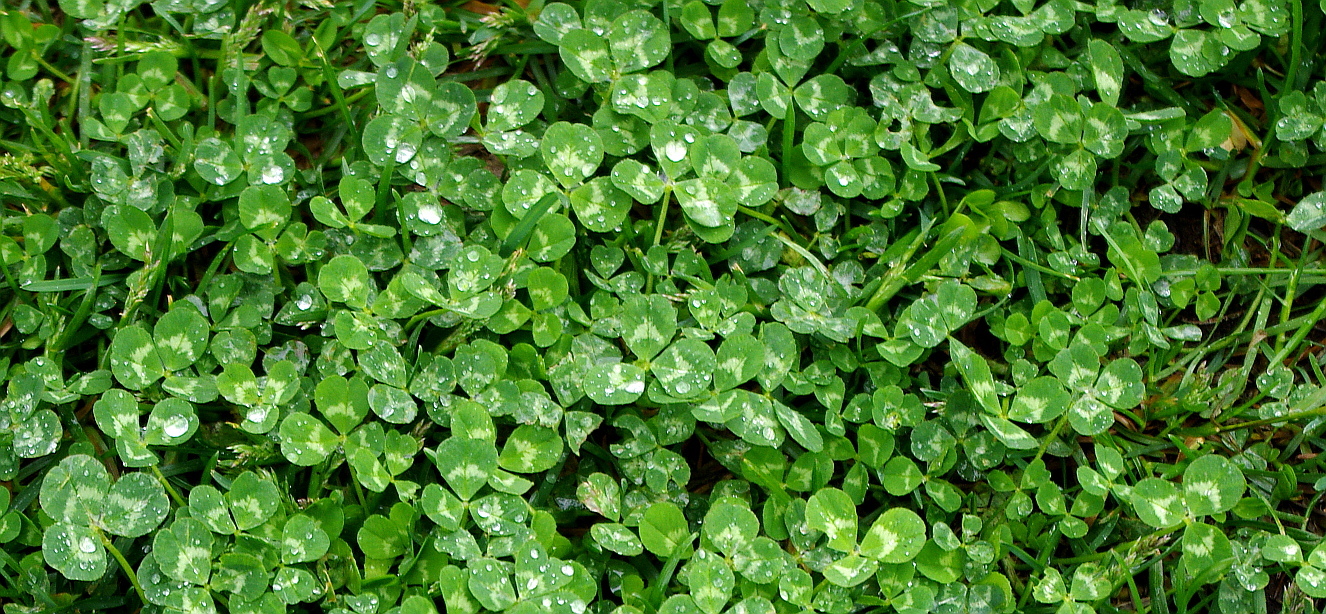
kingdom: Plantae
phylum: Tracheophyta
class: Magnoliopsida
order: Fabales
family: Fabaceae
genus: Trifolium
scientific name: Trifolium repens
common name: White clover
